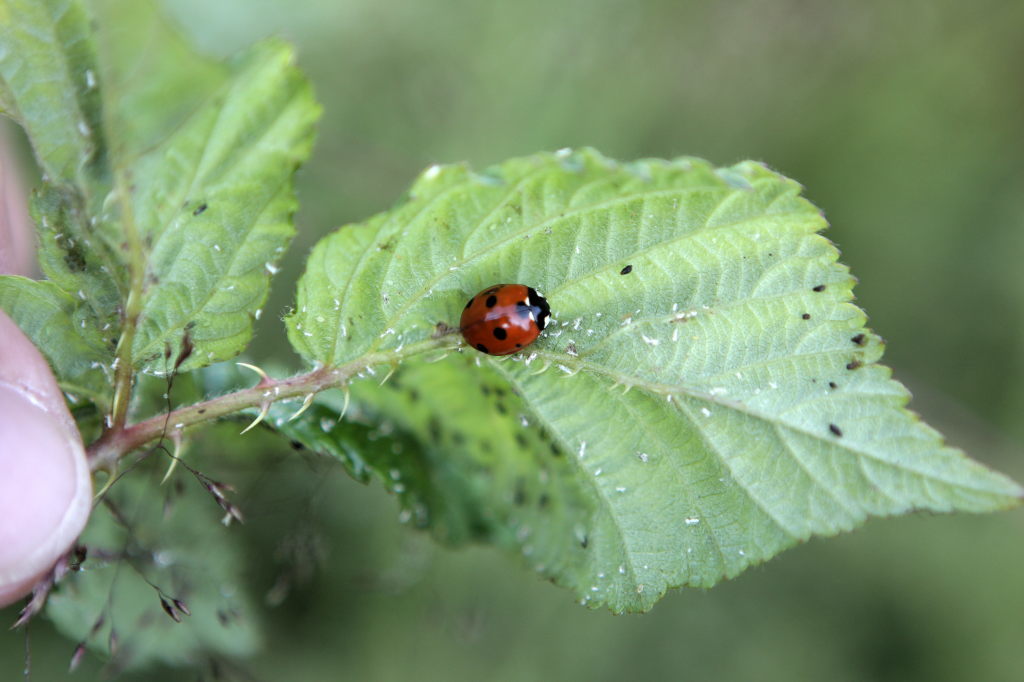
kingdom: Animalia
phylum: Arthropoda
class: Insecta
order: Coleoptera
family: Coccinellidae
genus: Coccinella
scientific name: Coccinella septempunctata
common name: Sevenspotted lady beetle
